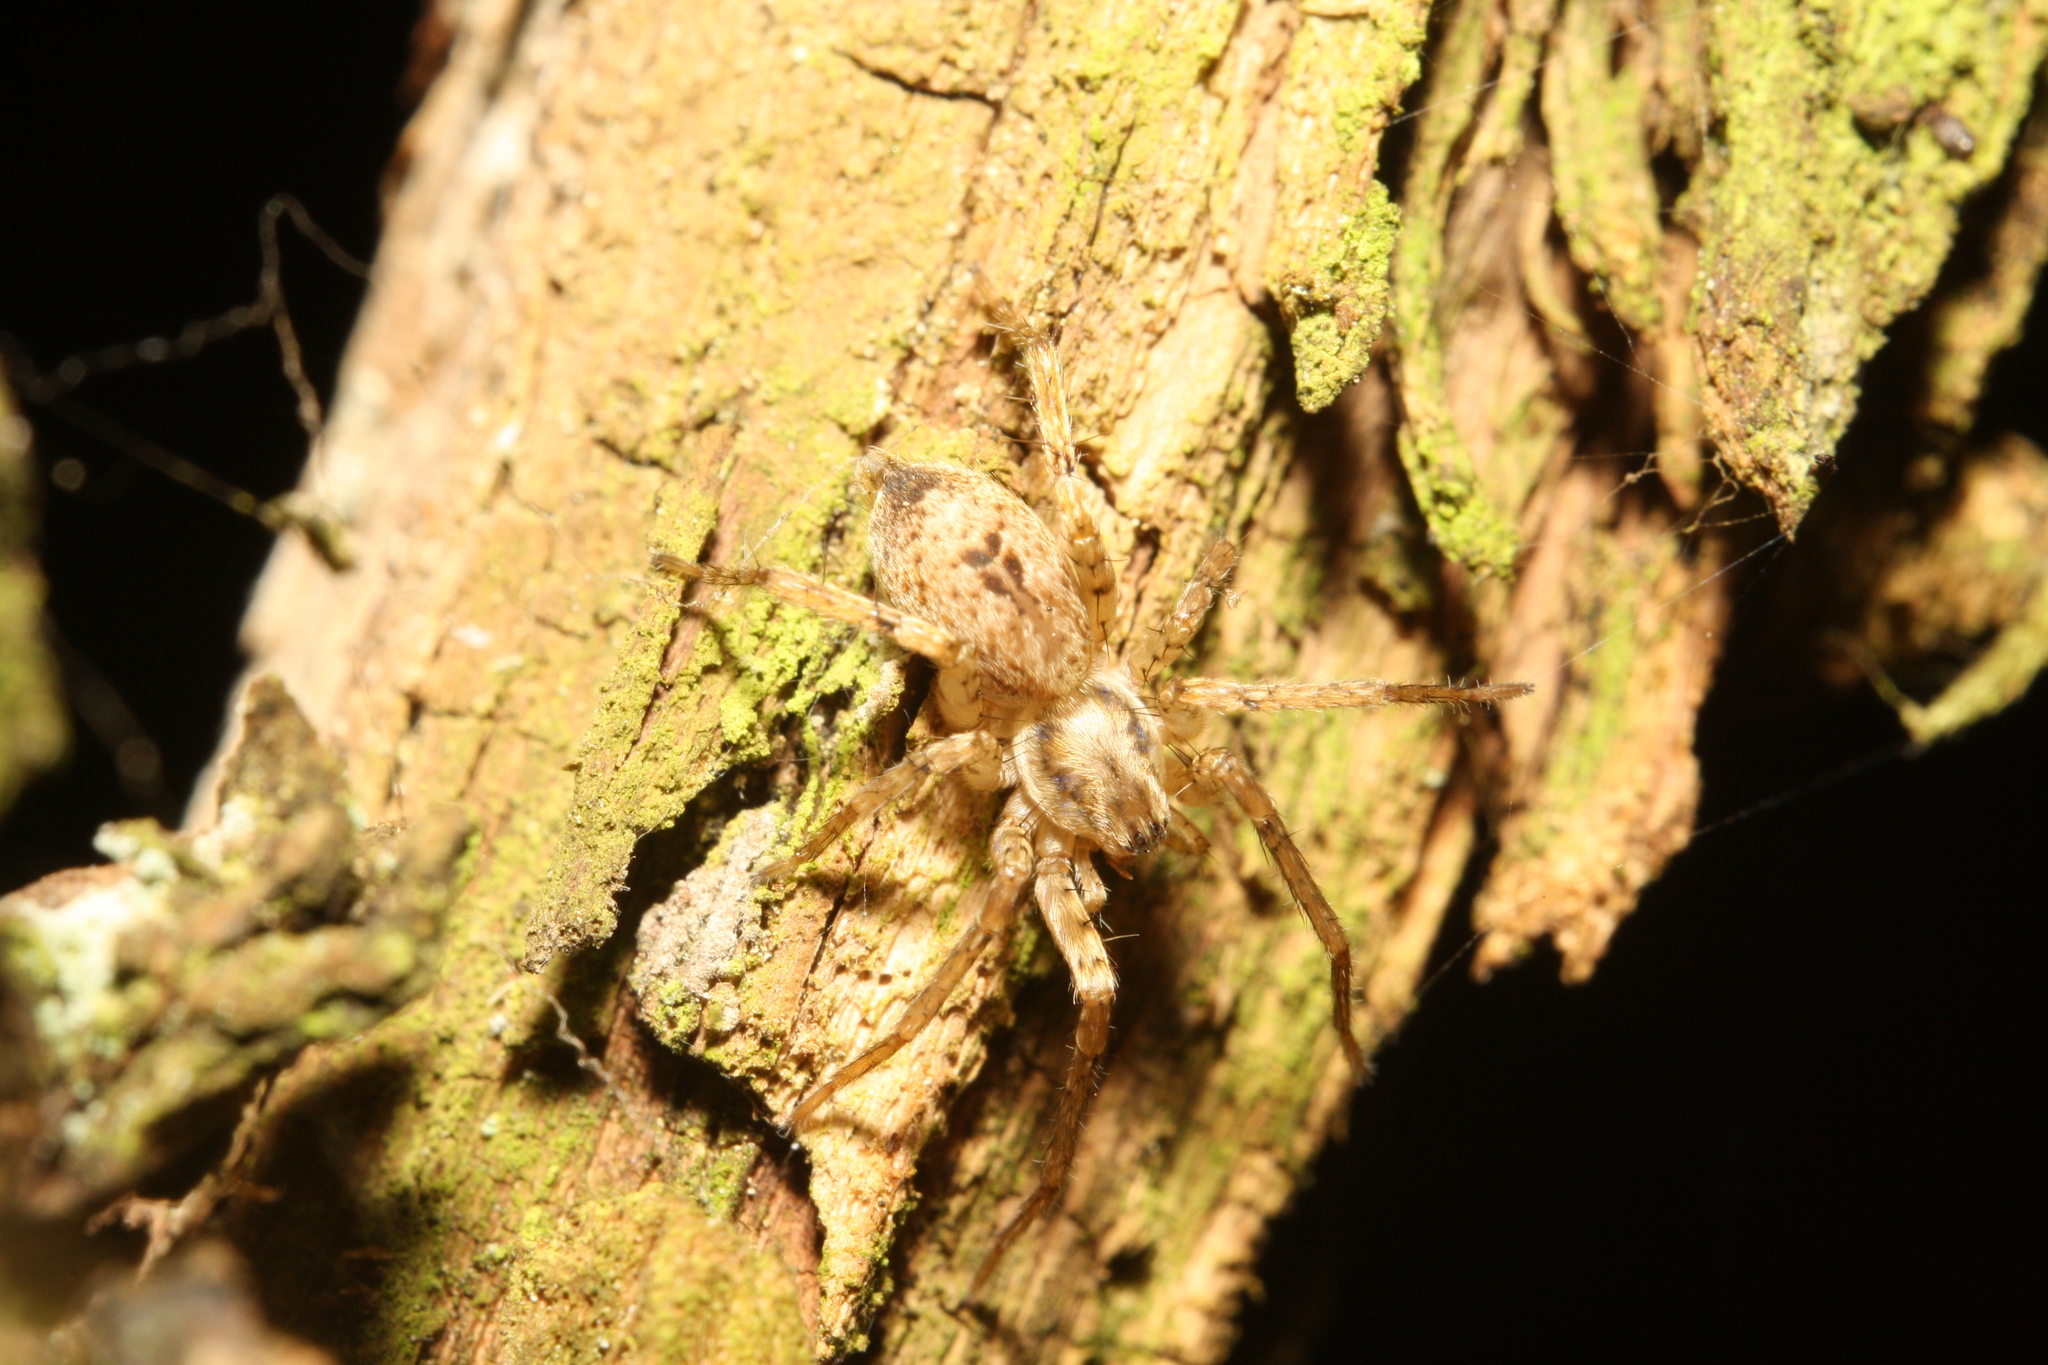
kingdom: Animalia
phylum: Arthropoda
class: Arachnida
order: Araneae
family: Anyphaenidae
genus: Anyphaena
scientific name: Anyphaena accentuata
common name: Buzzing spider
